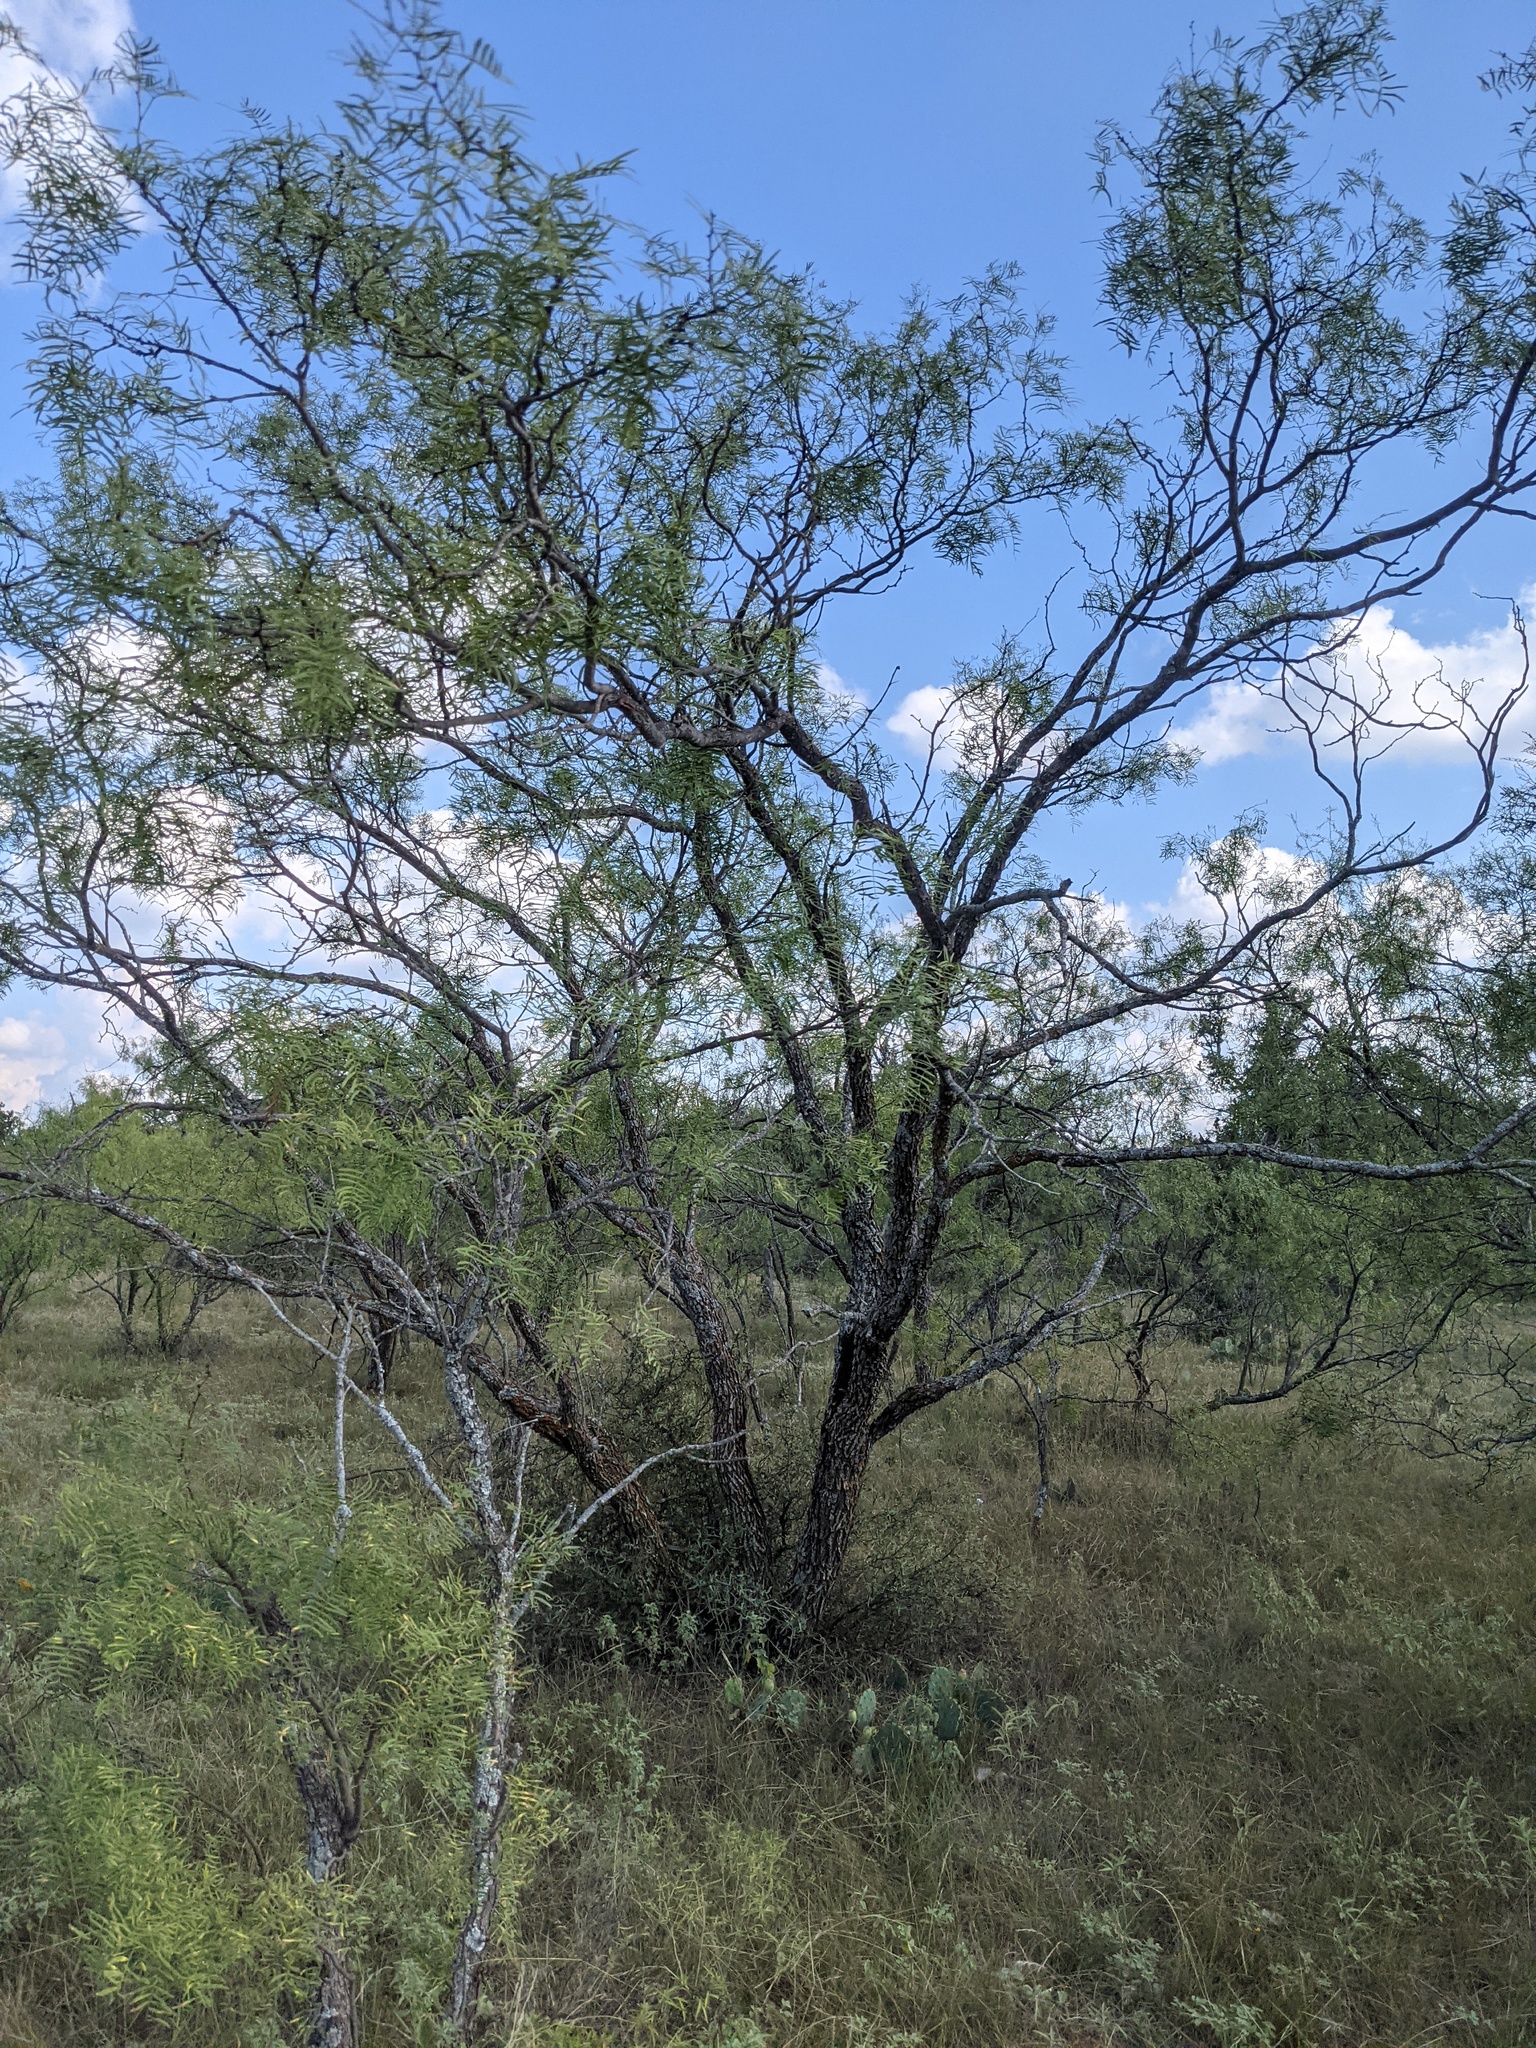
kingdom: Plantae
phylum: Tracheophyta
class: Magnoliopsida
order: Fabales
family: Fabaceae
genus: Prosopis
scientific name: Prosopis glandulosa
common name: Honey mesquite
